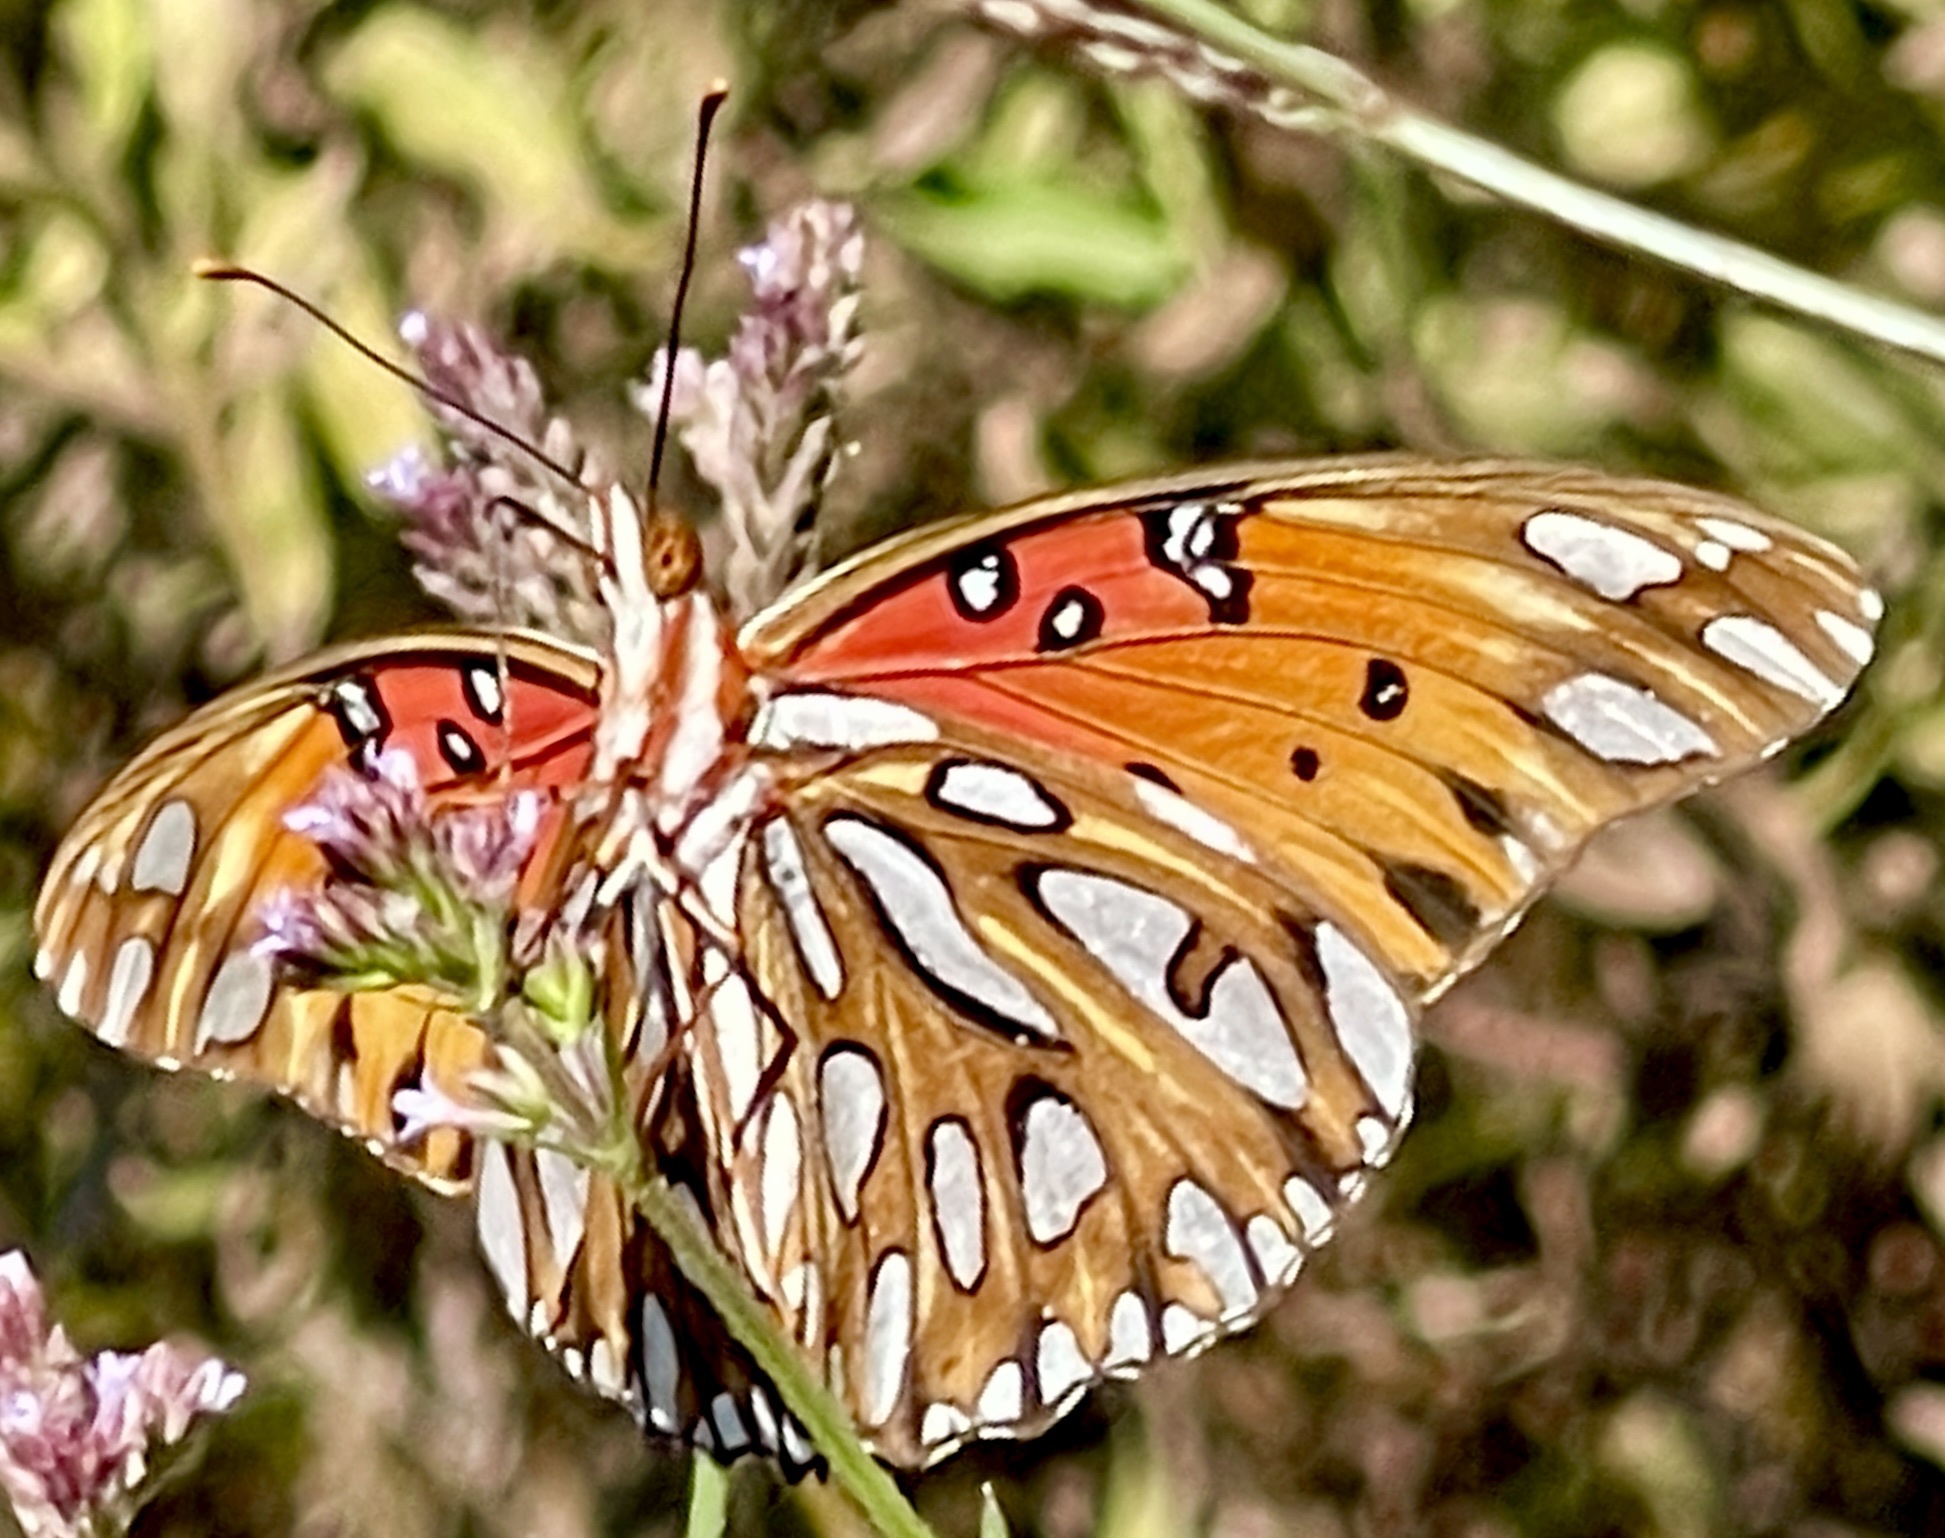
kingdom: Animalia
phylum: Arthropoda
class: Insecta
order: Lepidoptera
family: Nymphalidae
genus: Dione
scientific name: Dione vanillae
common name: Gulf fritillary
